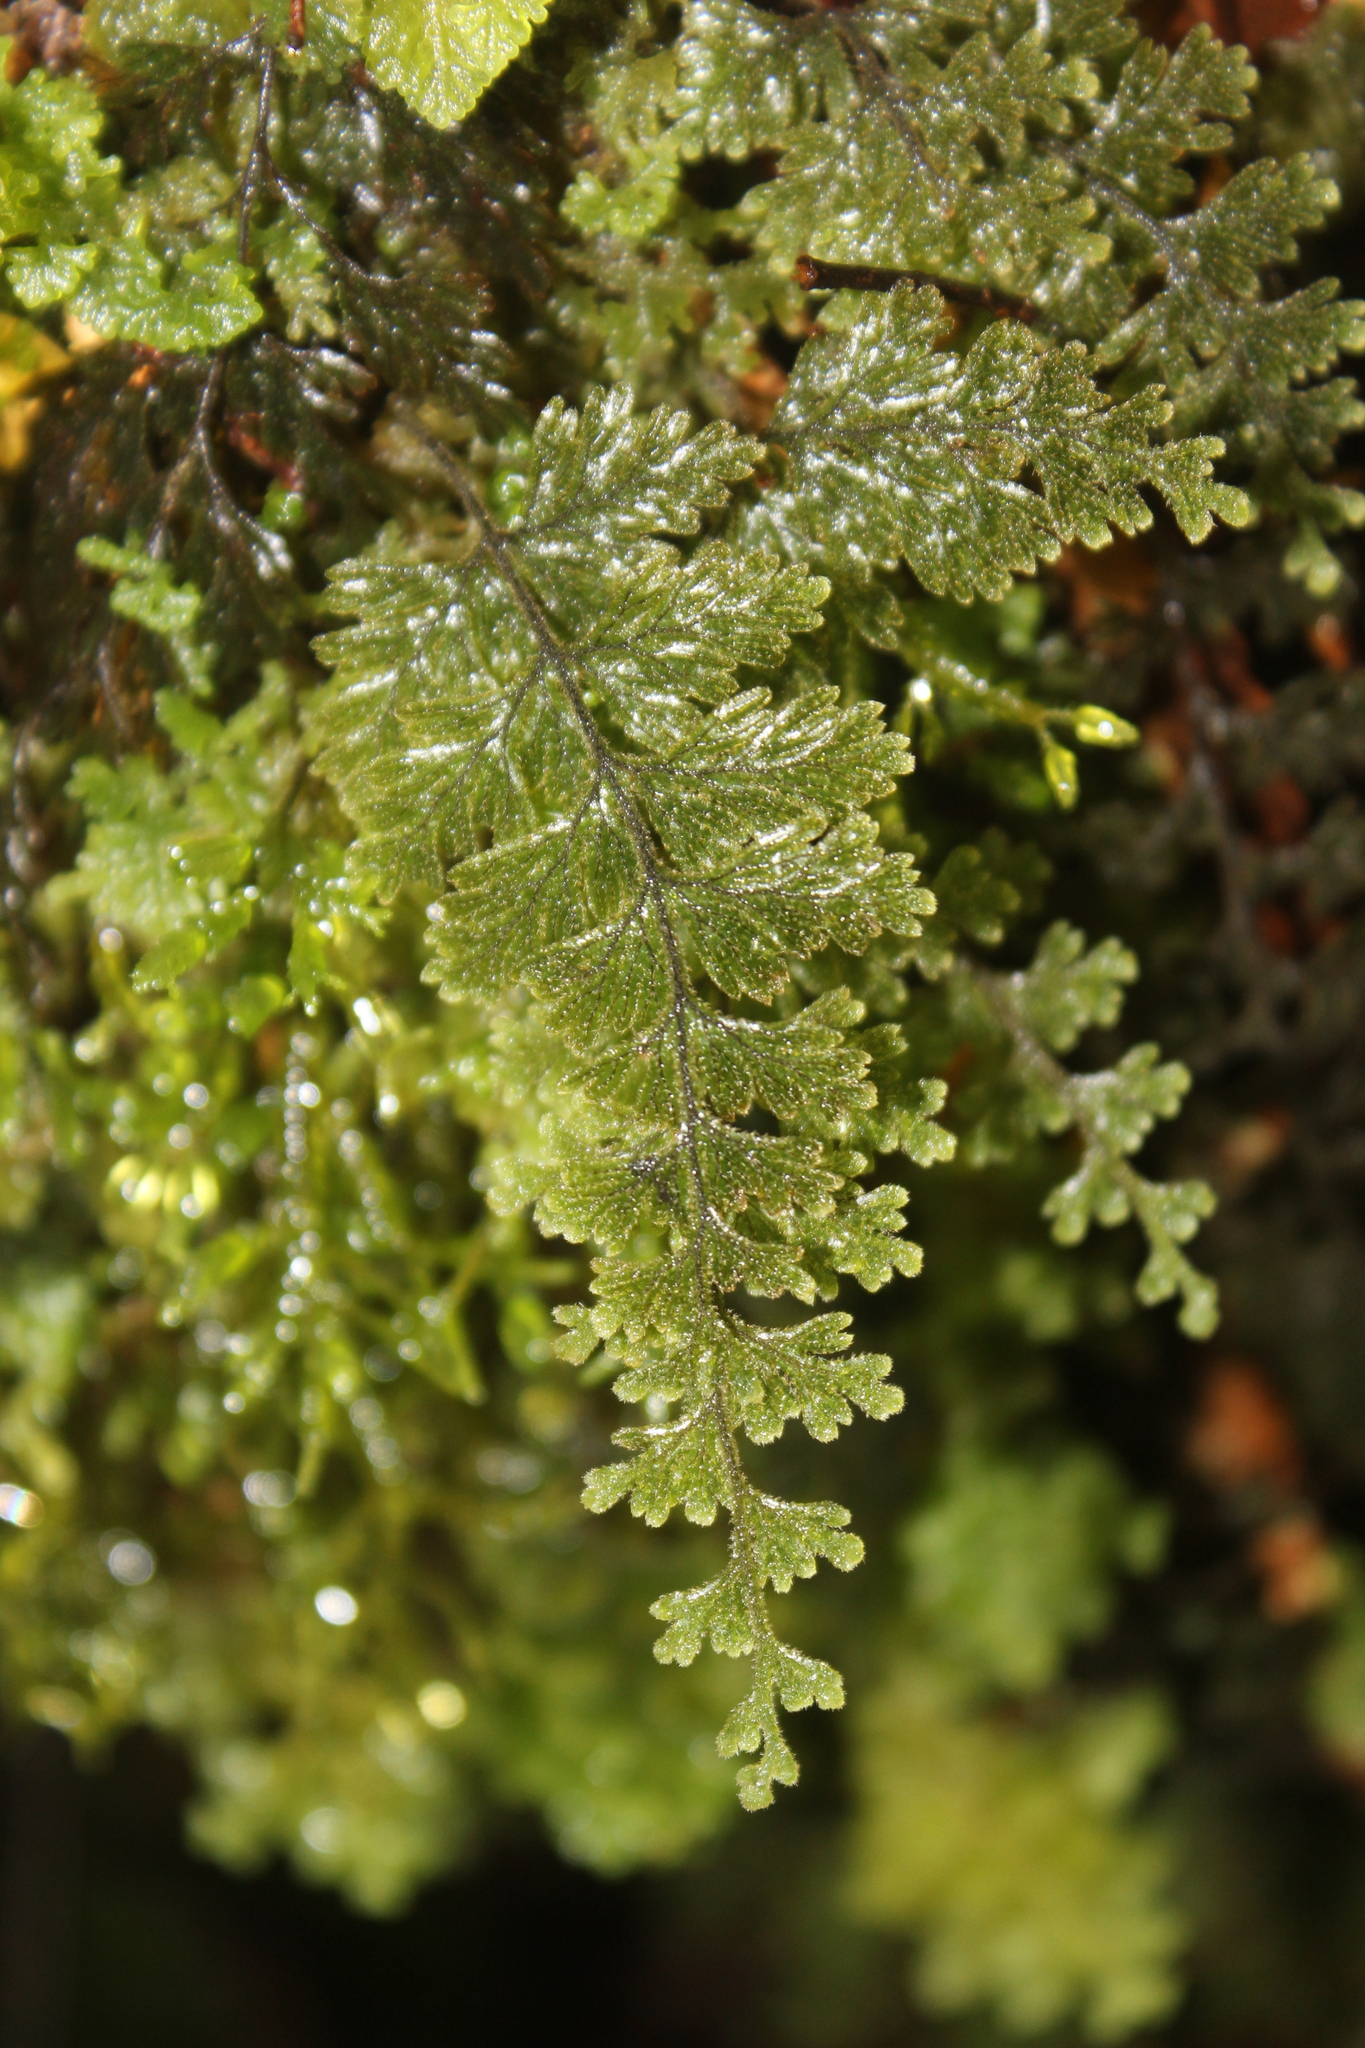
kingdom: Plantae
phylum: Tracheophyta
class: Polypodiopsida
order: Hymenophyllales
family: Hymenophyllaceae
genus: Hymenophyllum
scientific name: Hymenophyllum frankliniae
